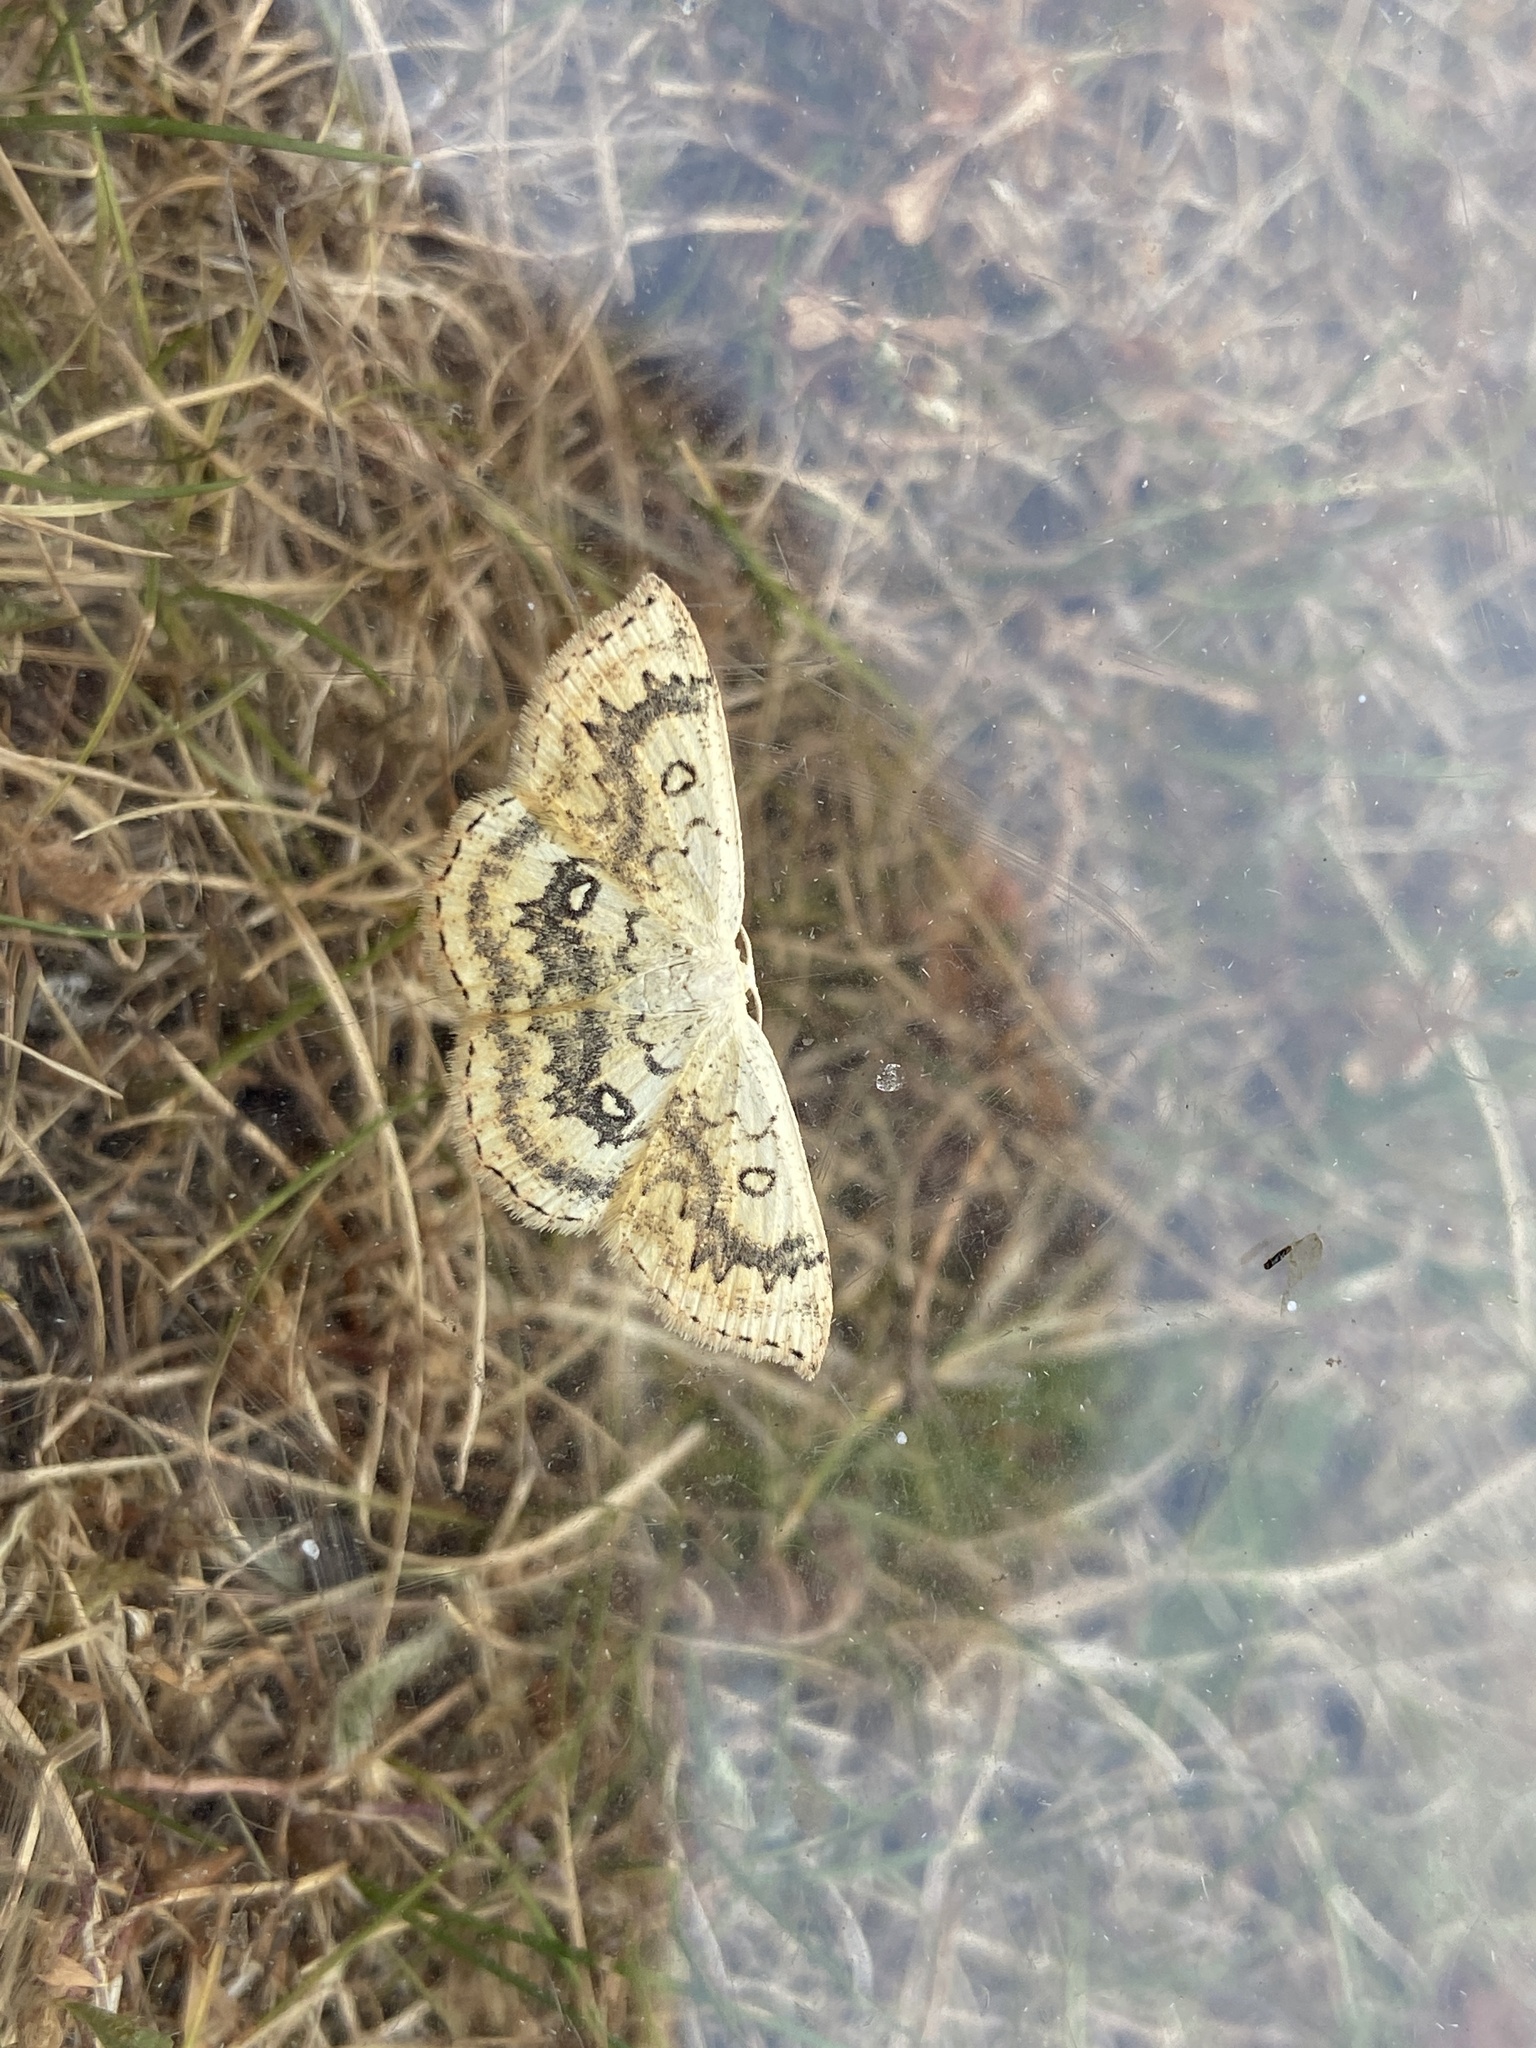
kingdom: Animalia
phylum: Arthropoda
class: Insecta
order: Lepidoptera
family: Geometridae
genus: Cyclophora
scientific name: Cyclophora annularia
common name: Mocha
